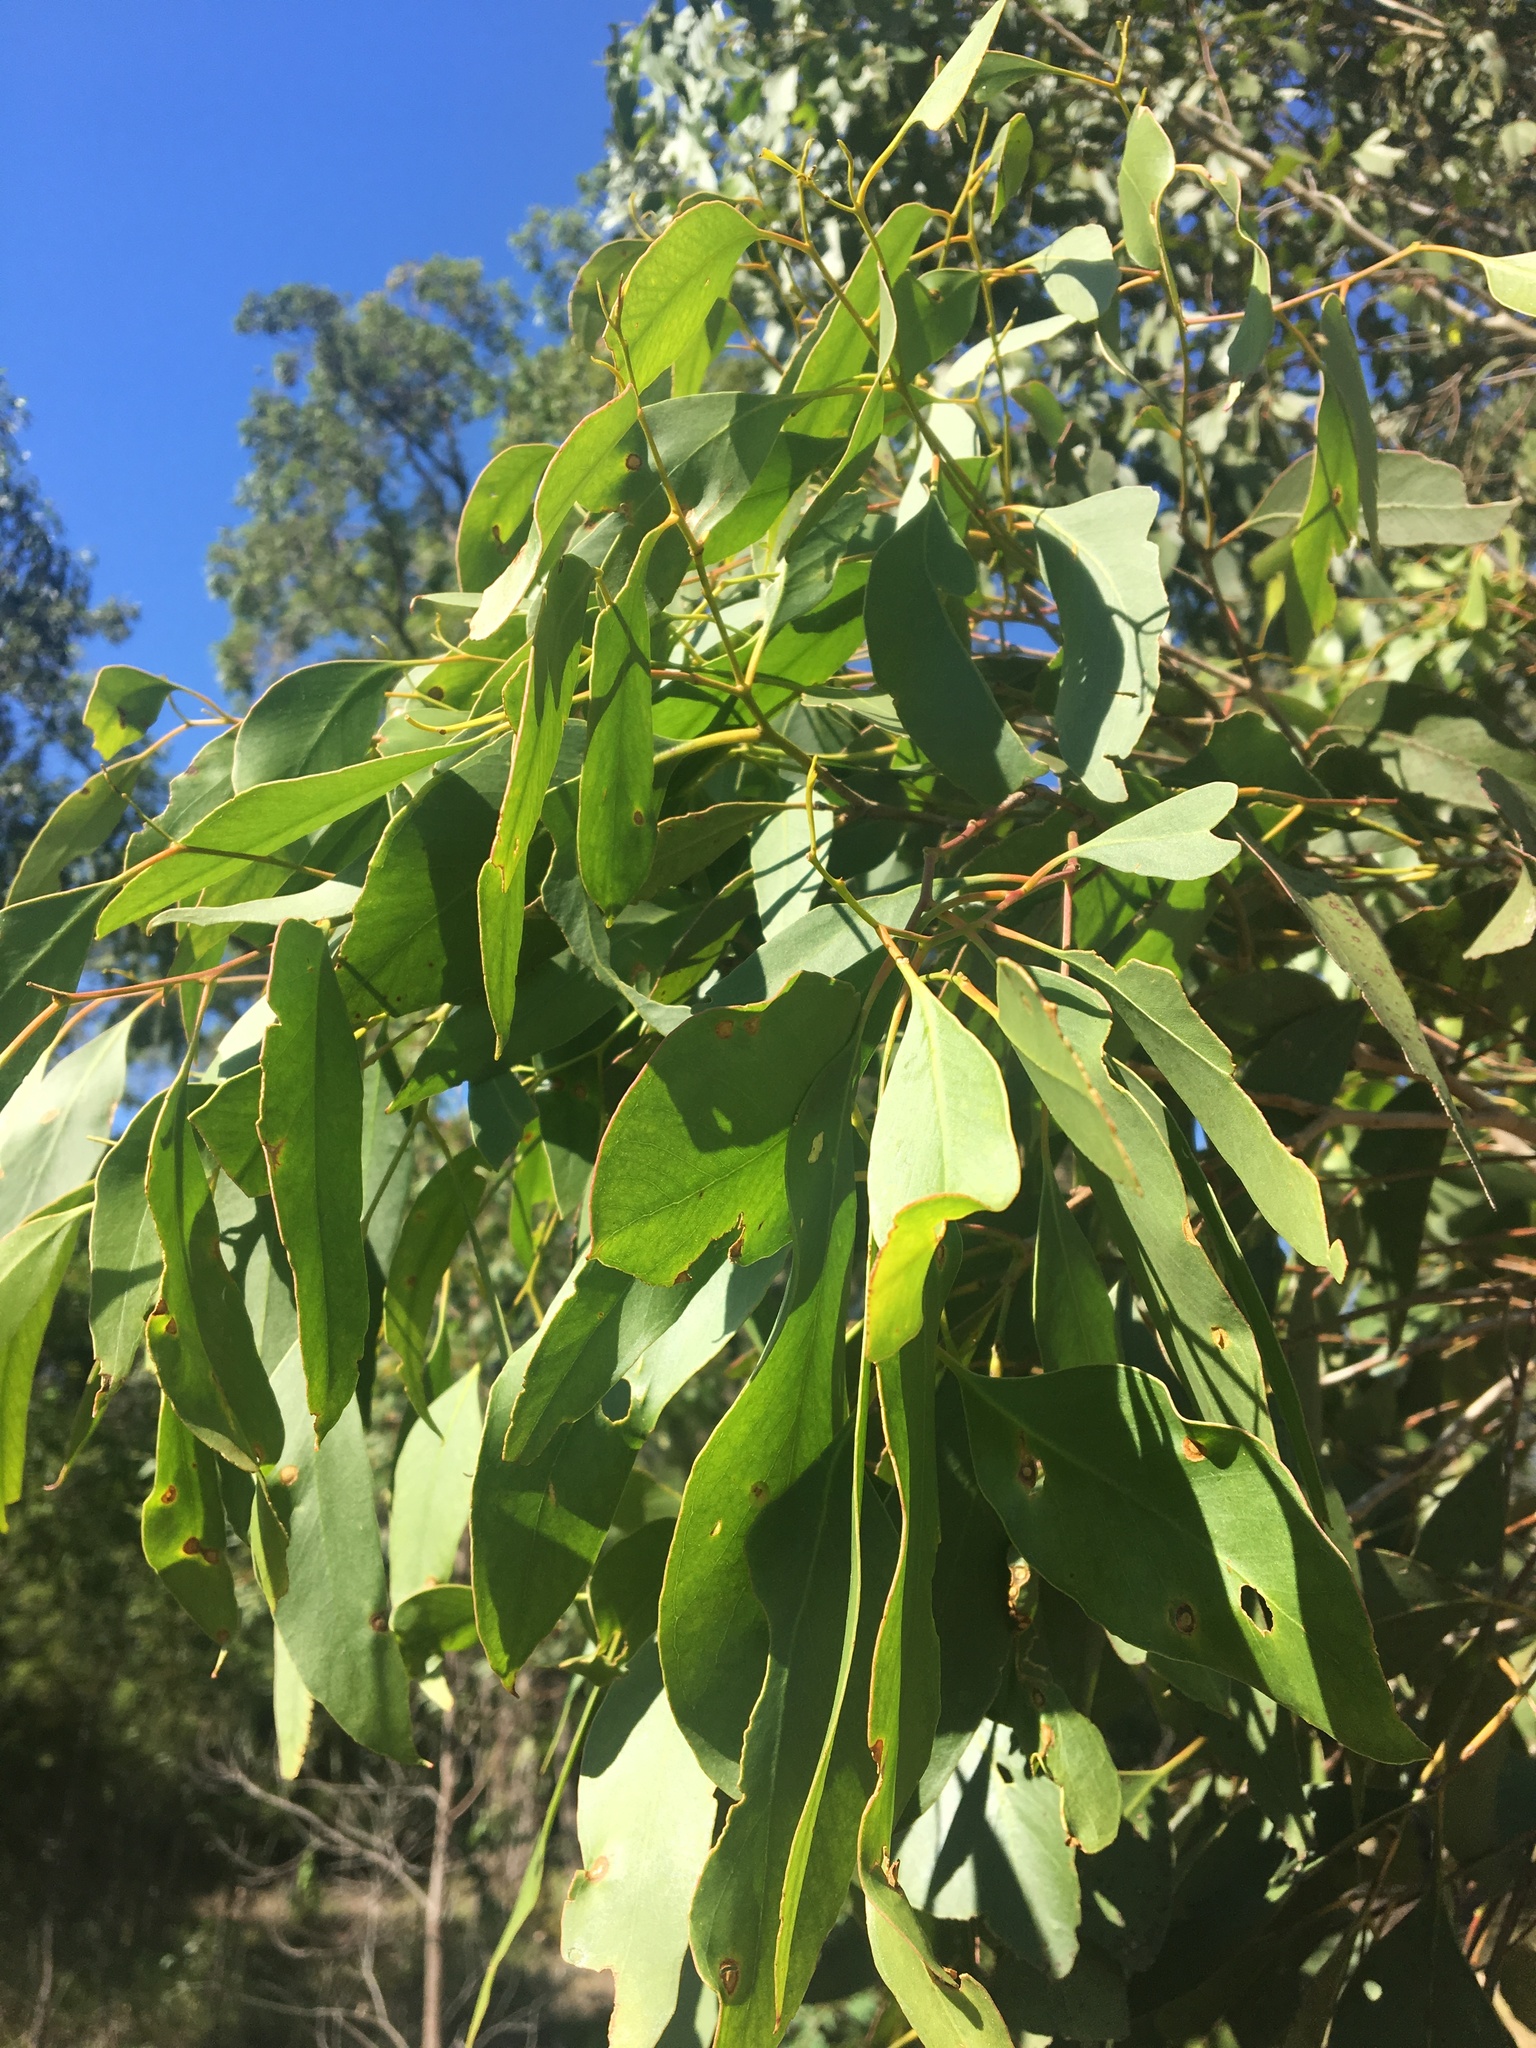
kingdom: Plantae
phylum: Tracheophyta
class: Magnoliopsida
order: Myrtales
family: Myrtaceae
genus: Eucalyptus
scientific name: Eucalyptus moluccana
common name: Grey-box
